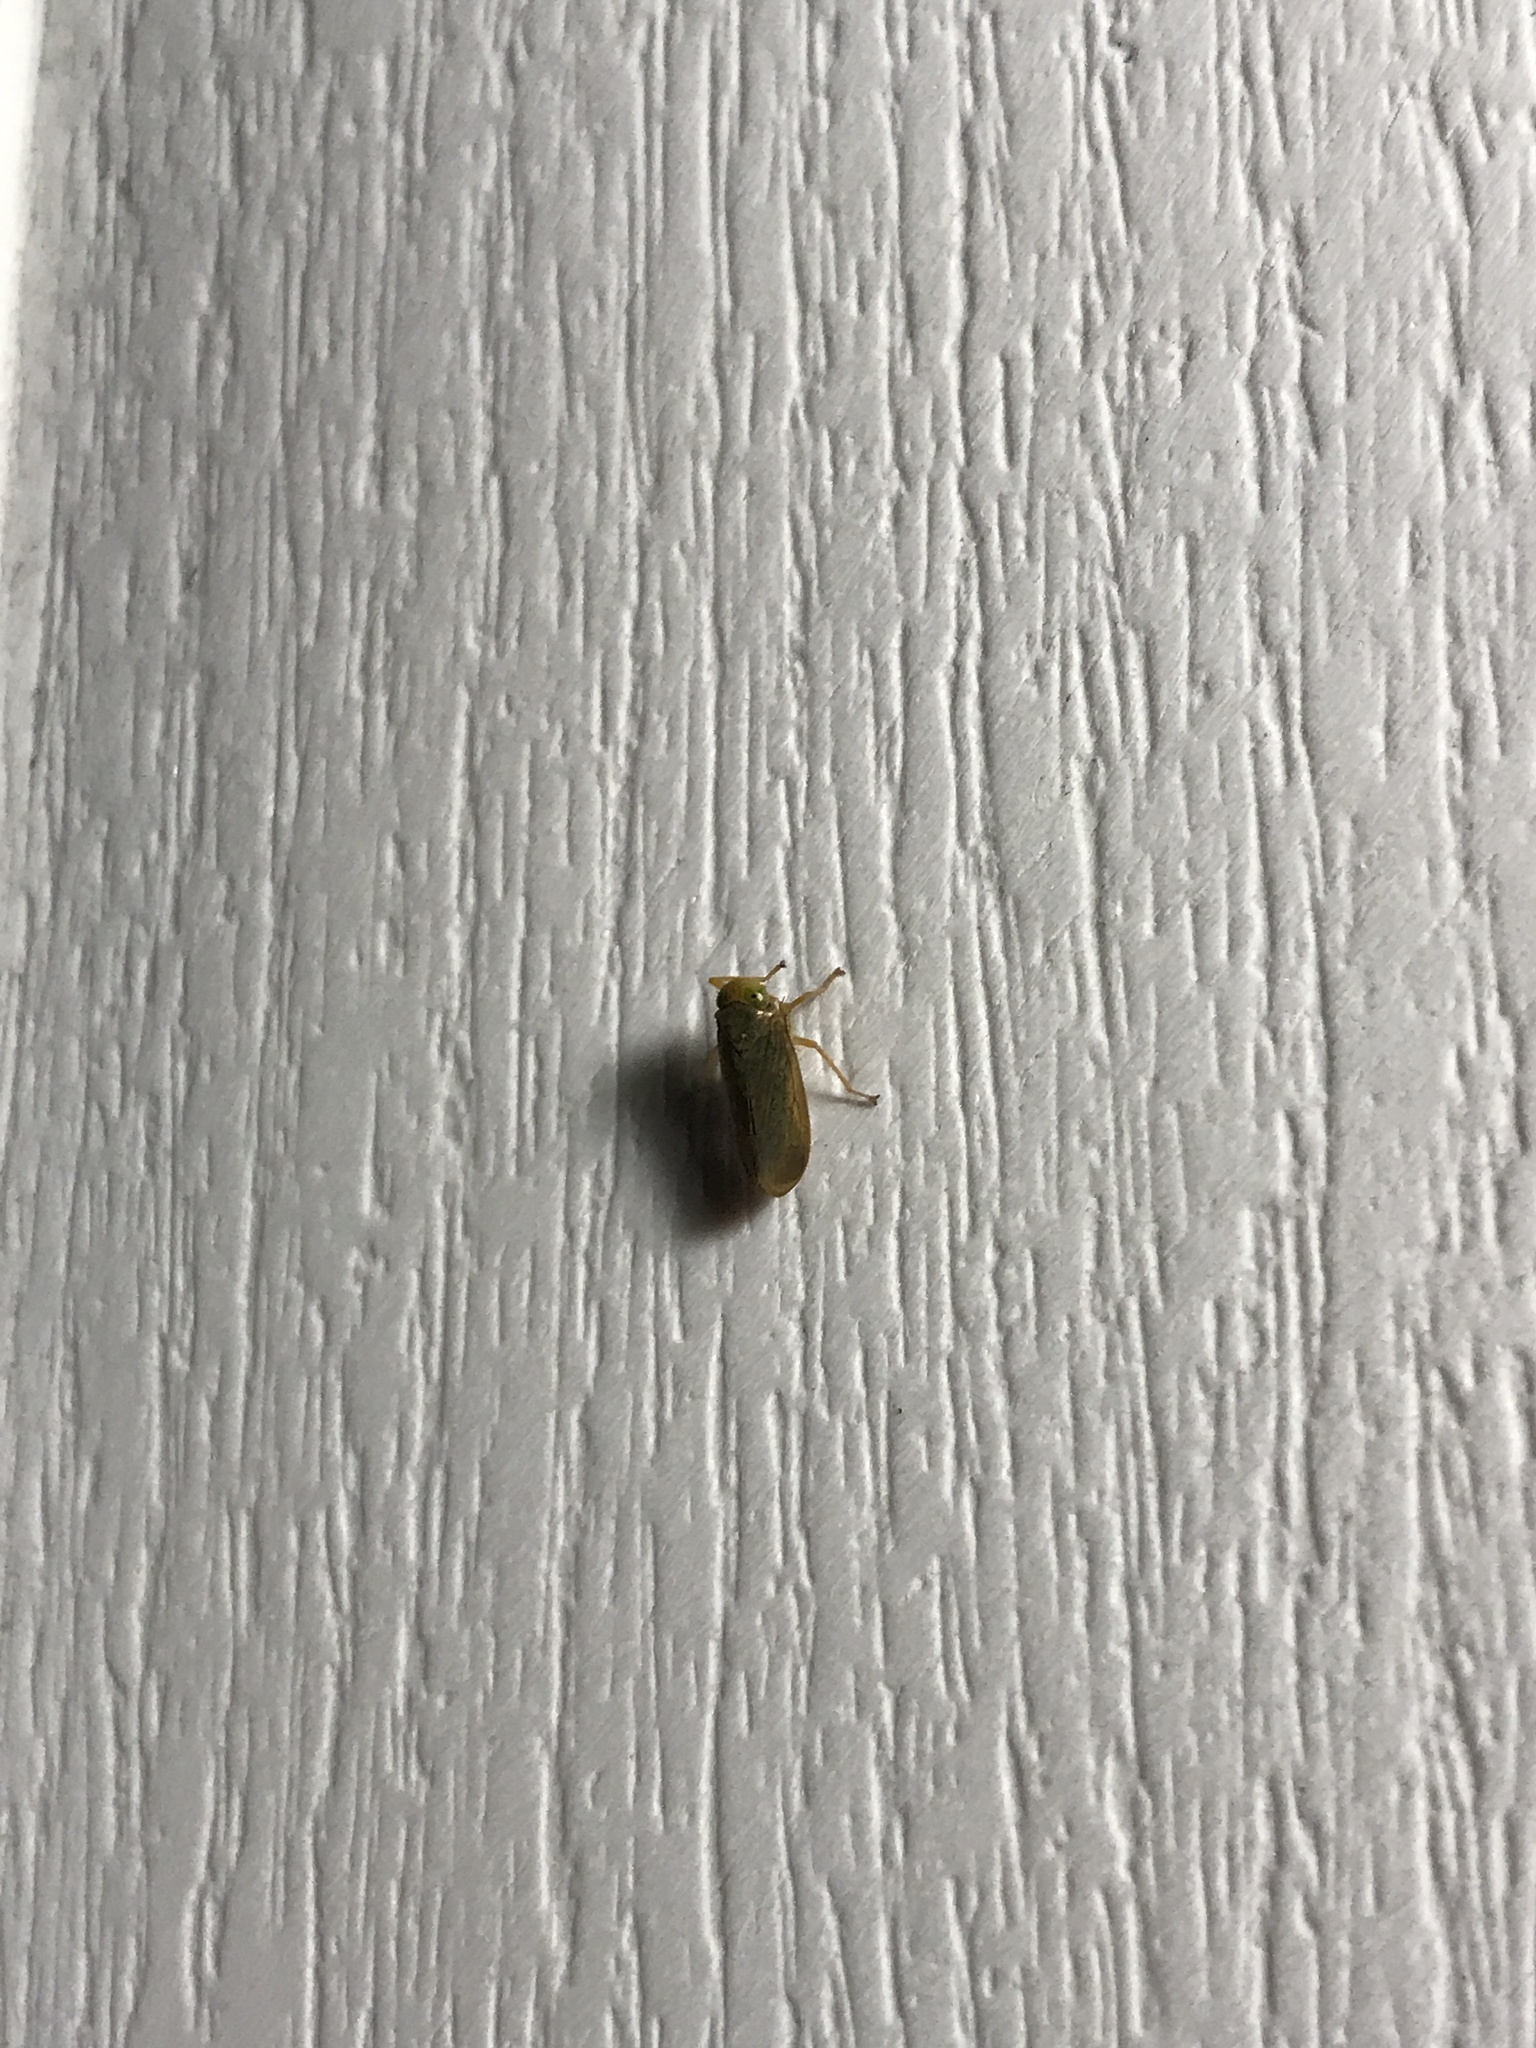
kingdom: Animalia
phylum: Arthropoda
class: Insecta
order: Hemiptera
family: Cicadellidae
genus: Jikradia
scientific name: Jikradia olitoria
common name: Coppery leafhopper
